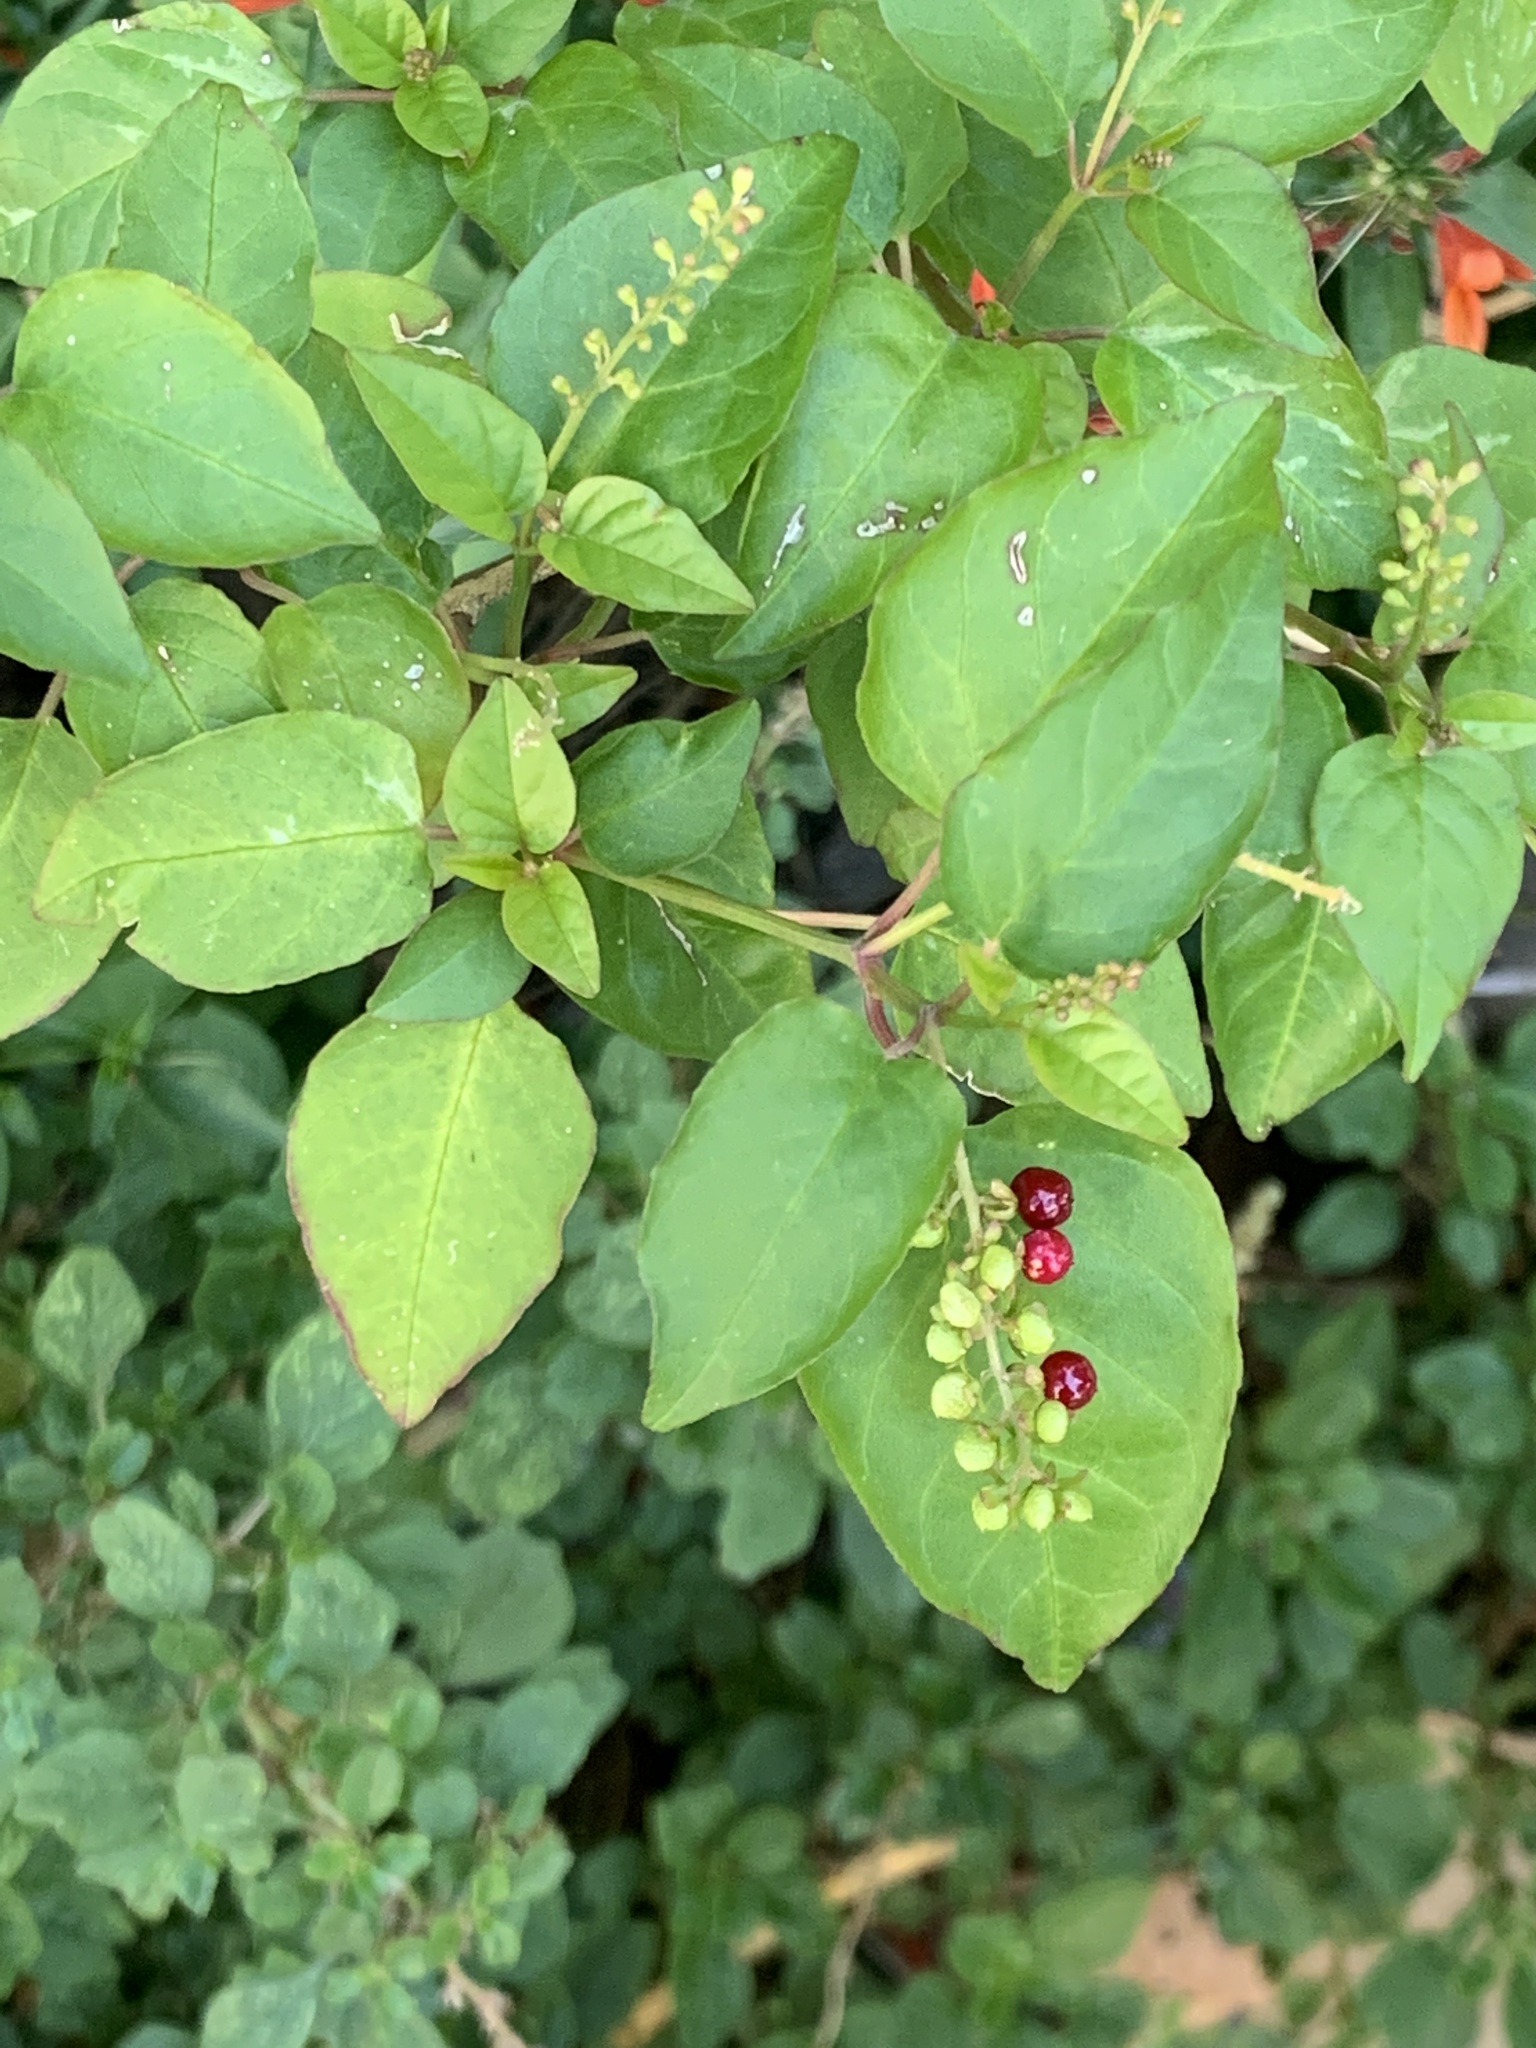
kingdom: Plantae
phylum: Tracheophyta
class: Magnoliopsida
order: Caryophyllales
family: Phytolaccaceae
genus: Rivina
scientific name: Rivina humilis
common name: Rougeplant
